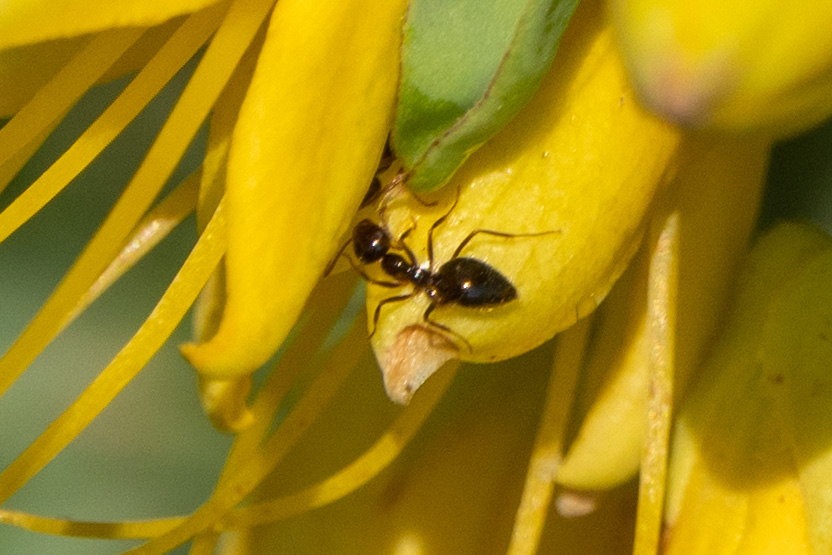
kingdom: Animalia
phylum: Arthropoda
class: Insecta
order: Hymenoptera
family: Formicidae
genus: Prenolepis
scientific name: Prenolepis imparis
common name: Small honey ant
